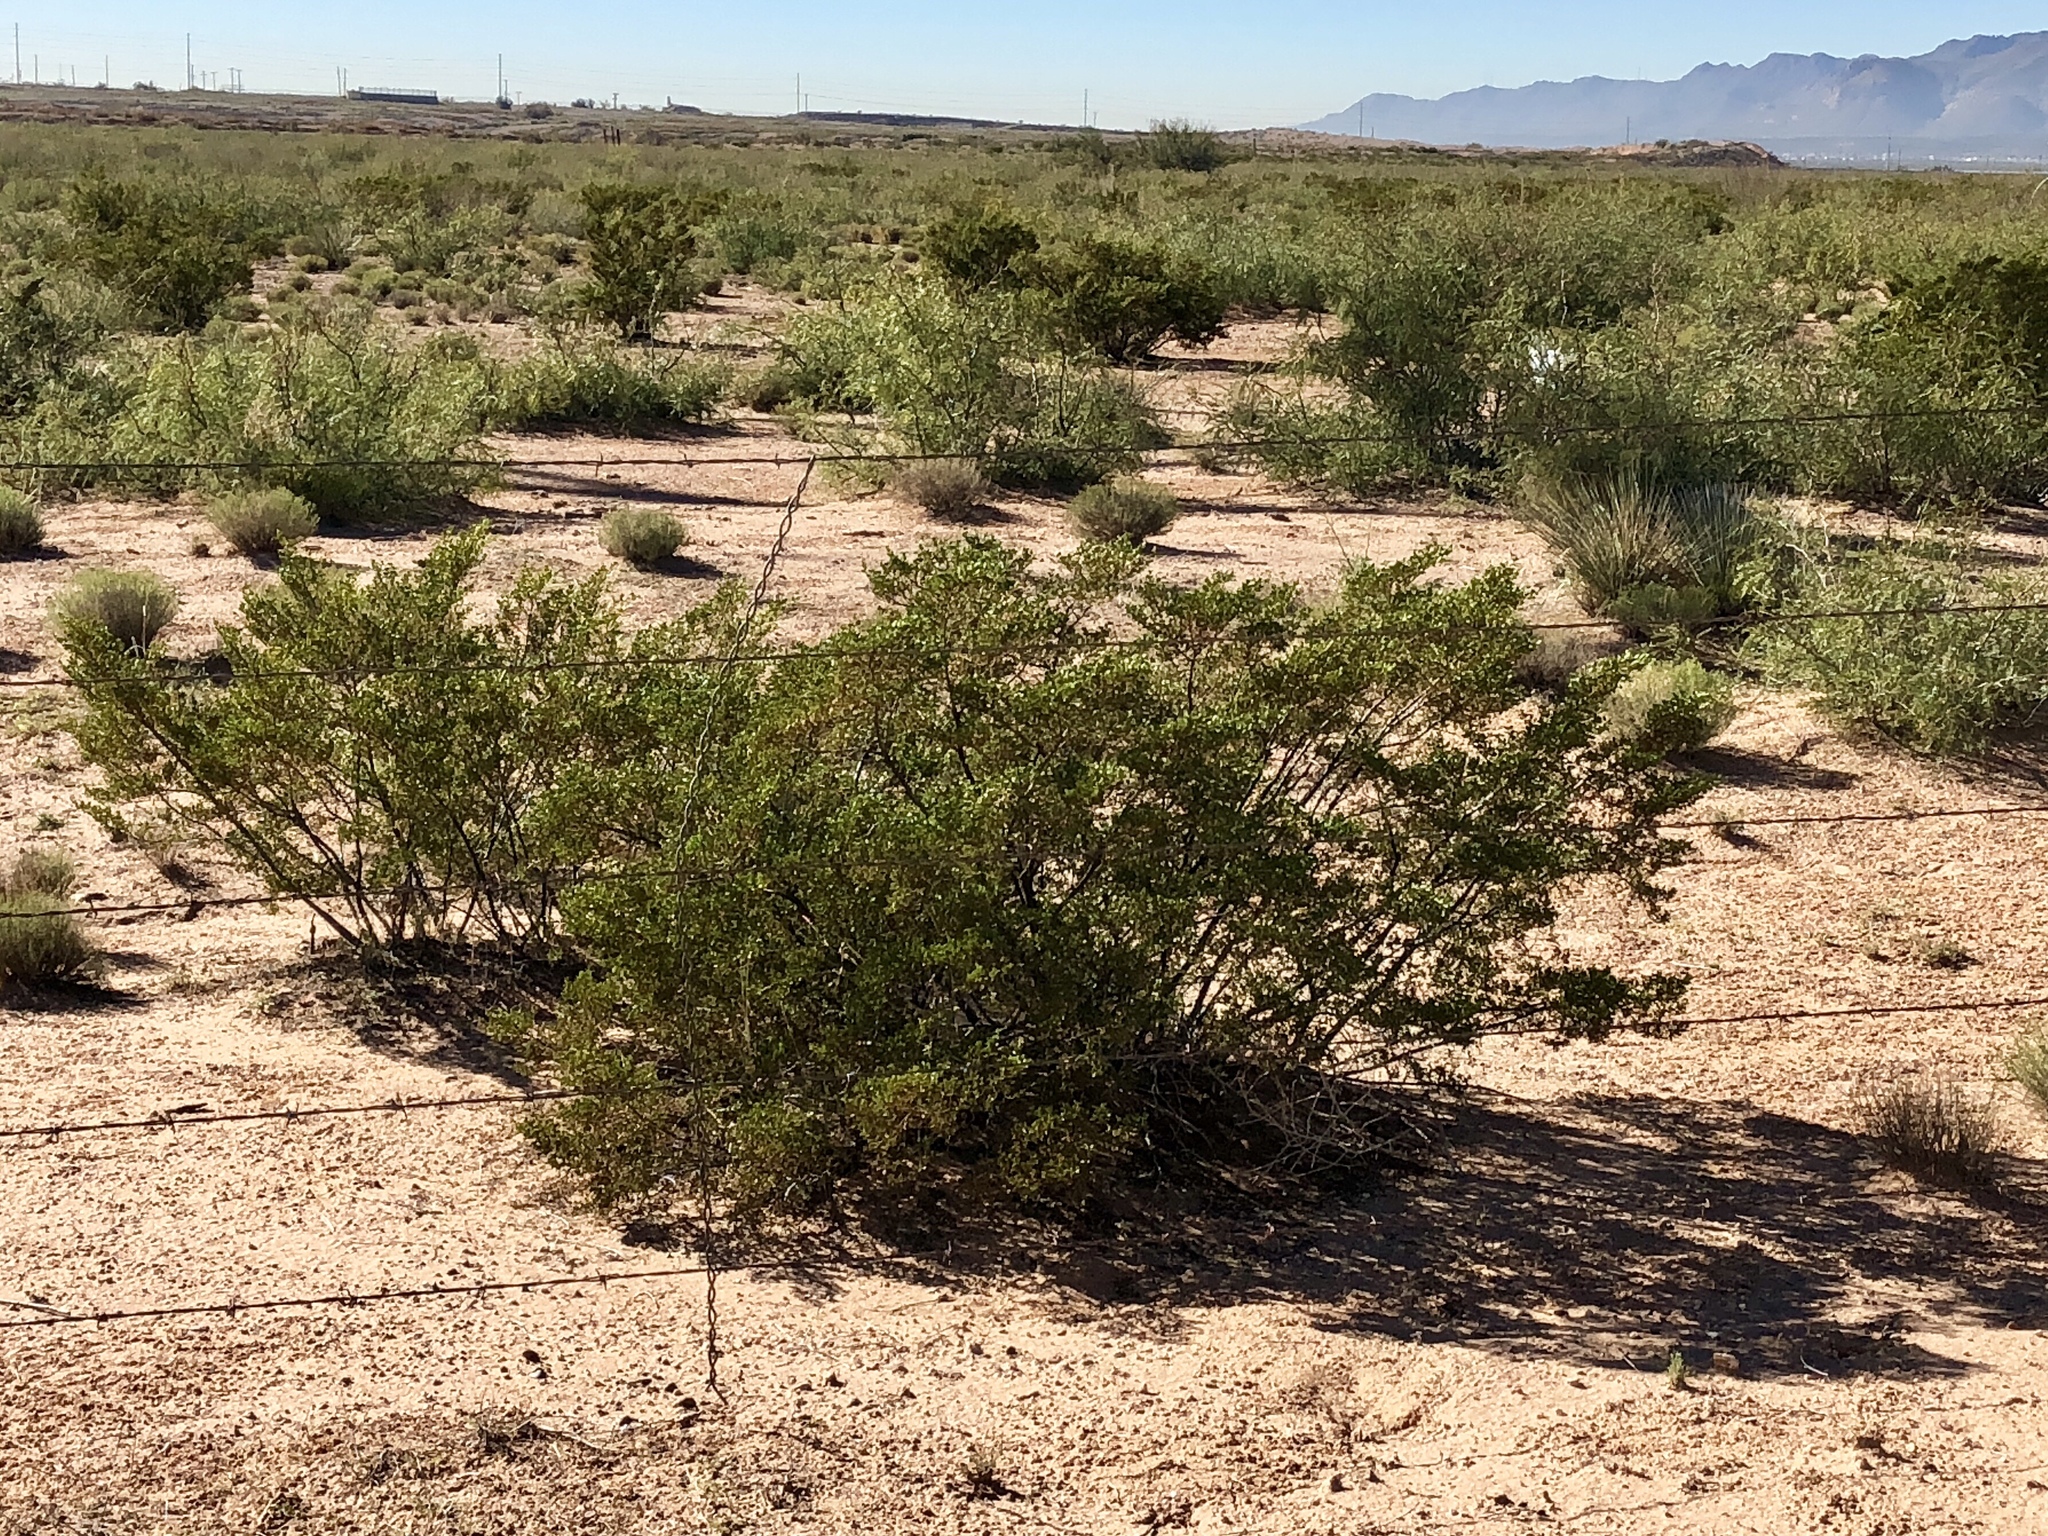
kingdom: Plantae
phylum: Tracheophyta
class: Magnoliopsida
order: Zygophyllales
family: Zygophyllaceae
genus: Larrea
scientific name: Larrea tridentata
